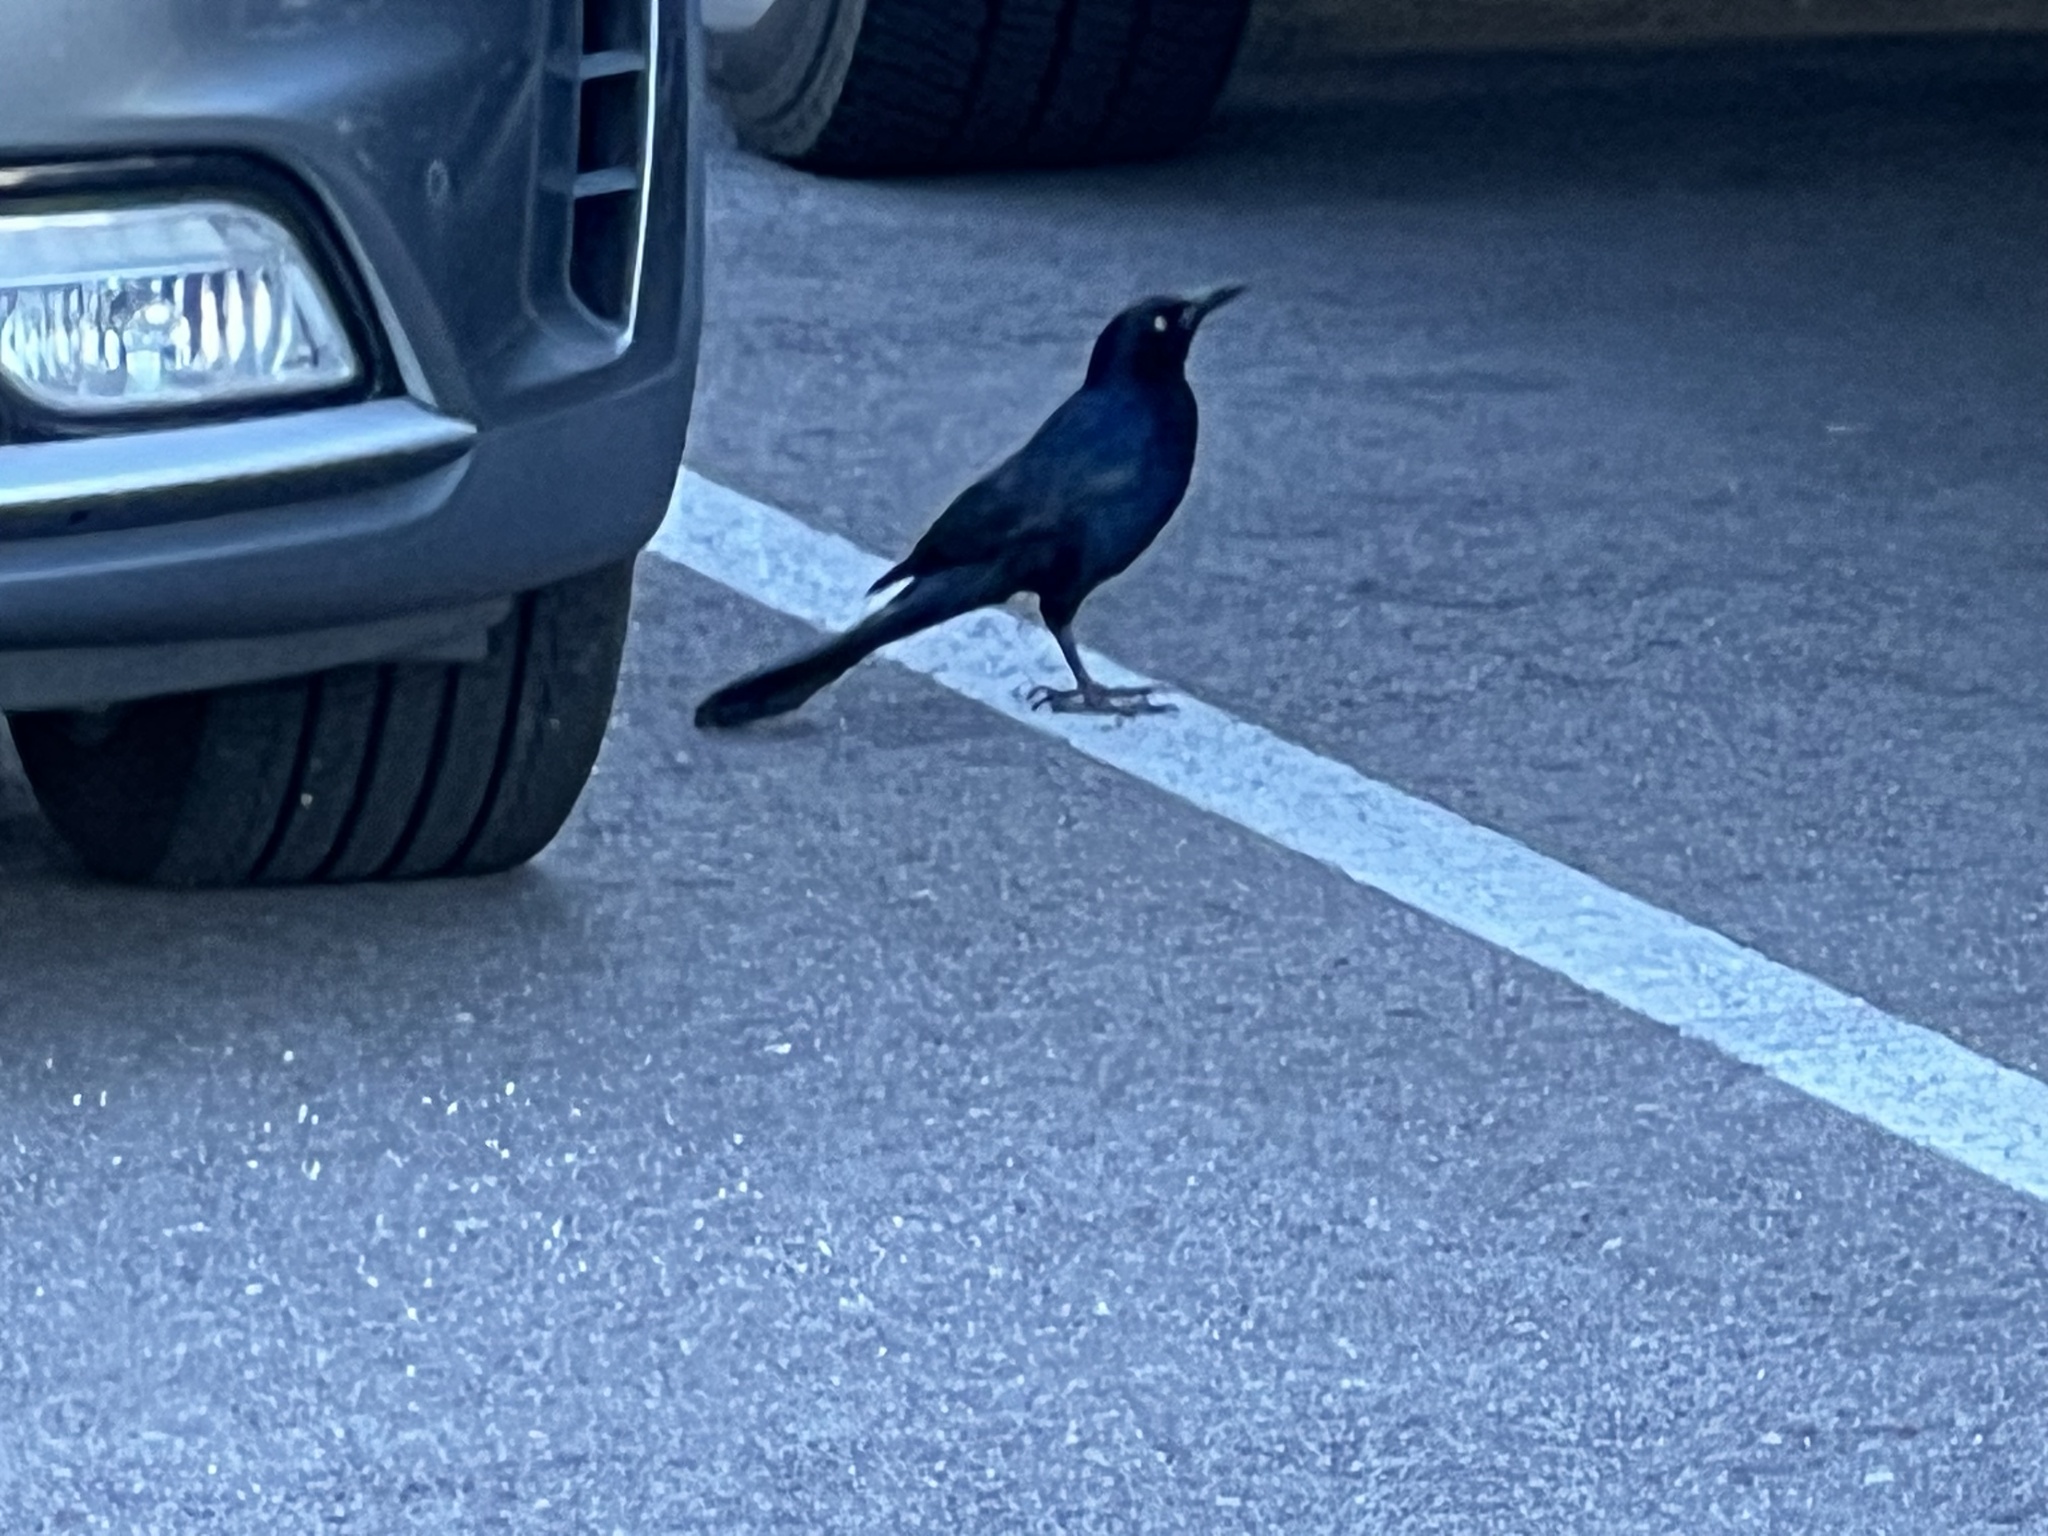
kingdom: Animalia
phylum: Chordata
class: Aves
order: Passeriformes
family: Icteridae
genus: Quiscalus
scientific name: Quiscalus mexicanus
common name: Great-tailed grackle
